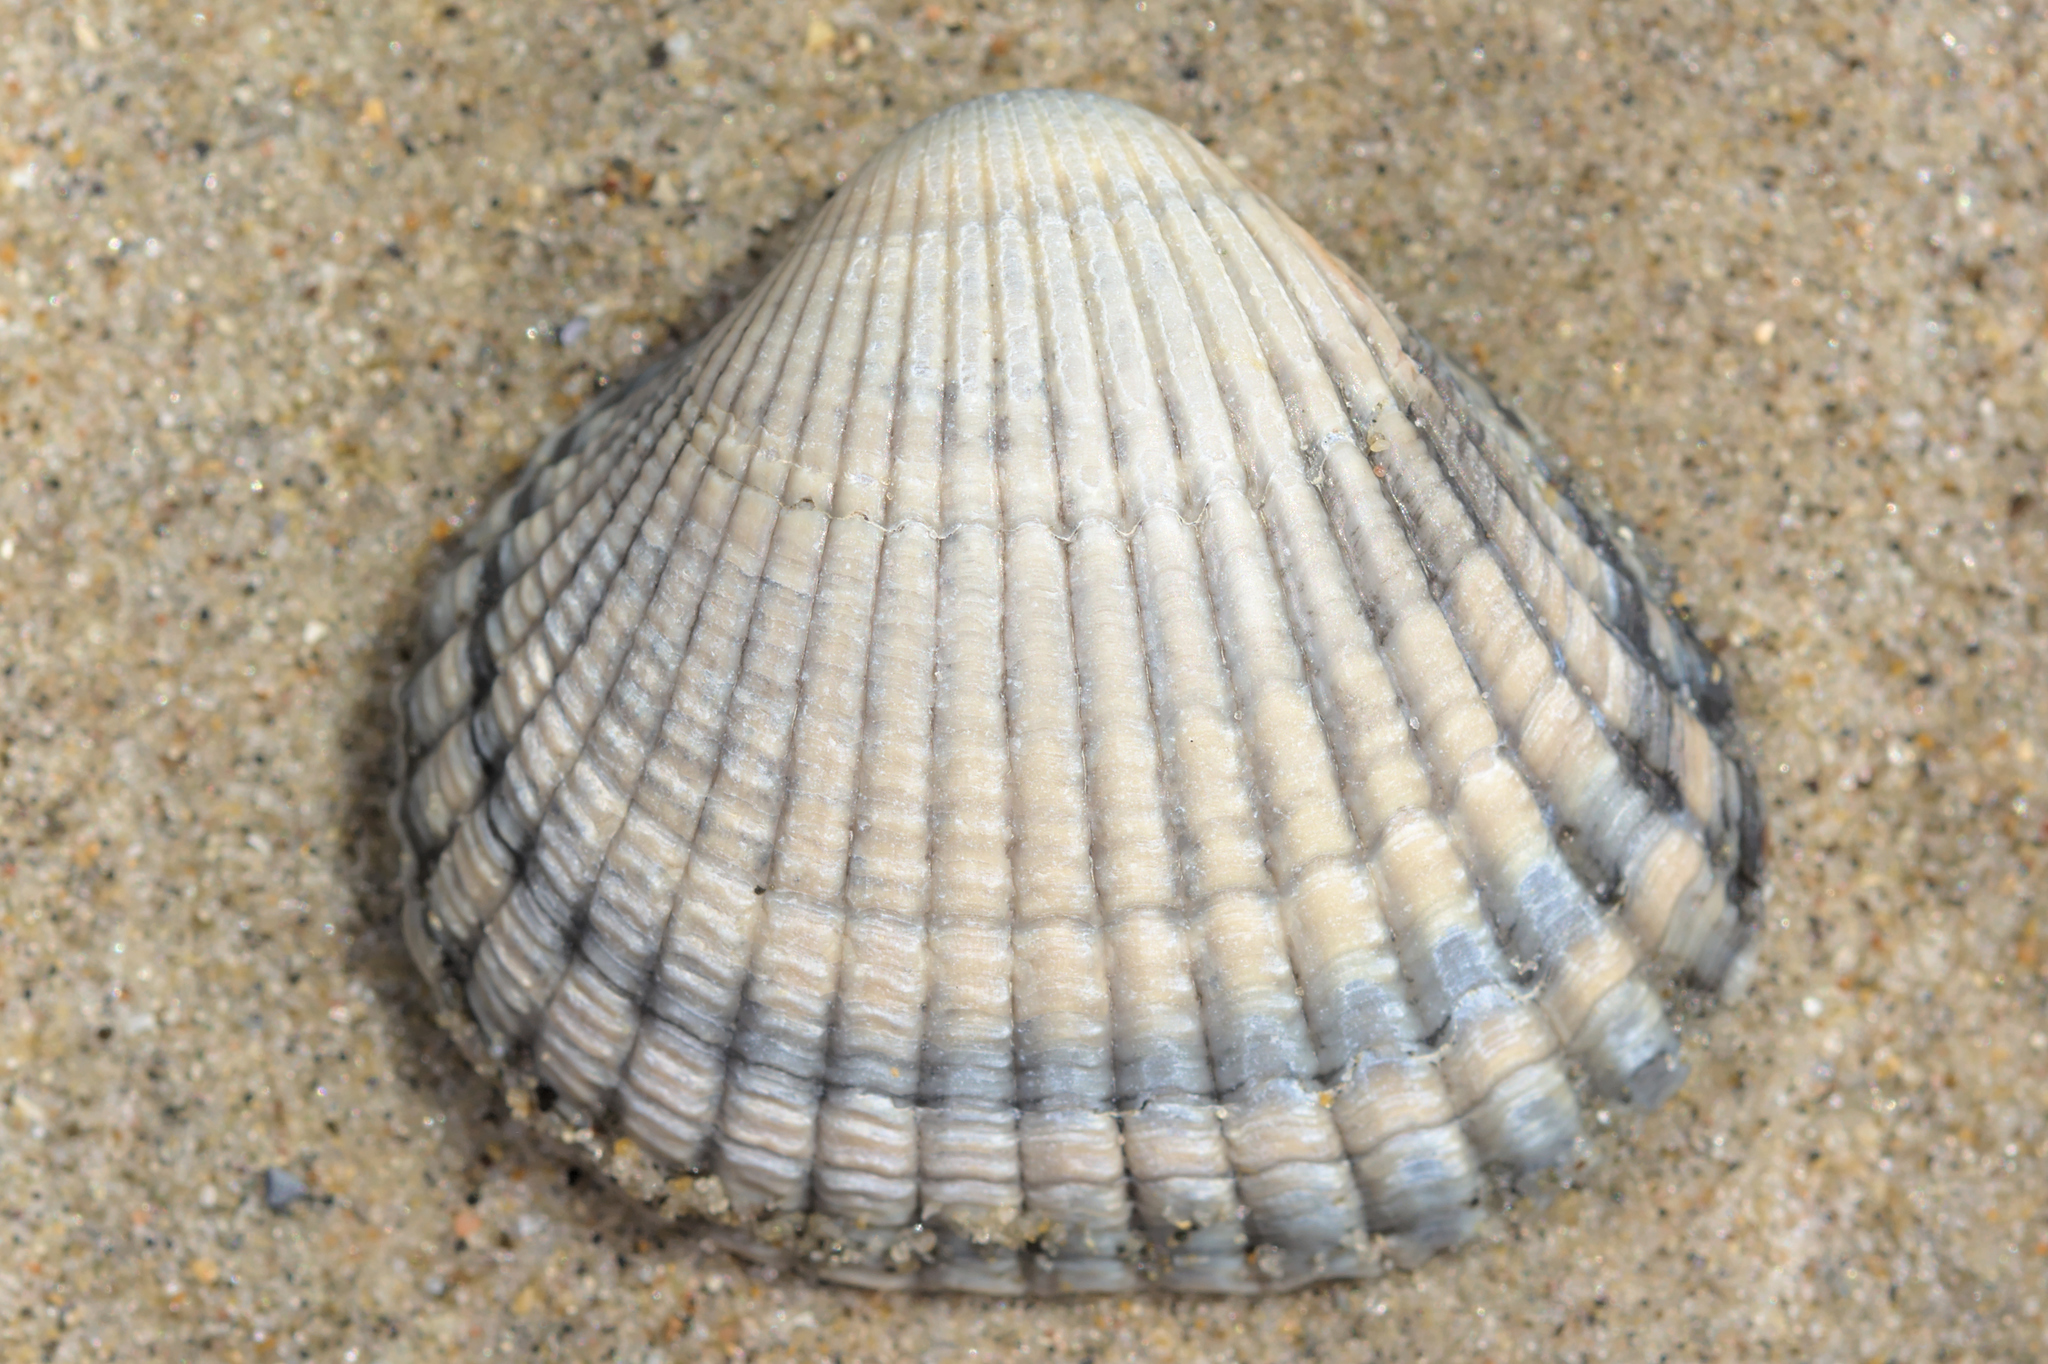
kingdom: Animalia
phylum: Mollusca
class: Bivalvia
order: Cardiida
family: Cardiidae
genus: Cerastoderma
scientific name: Cerastoderma edule
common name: Common cockle
